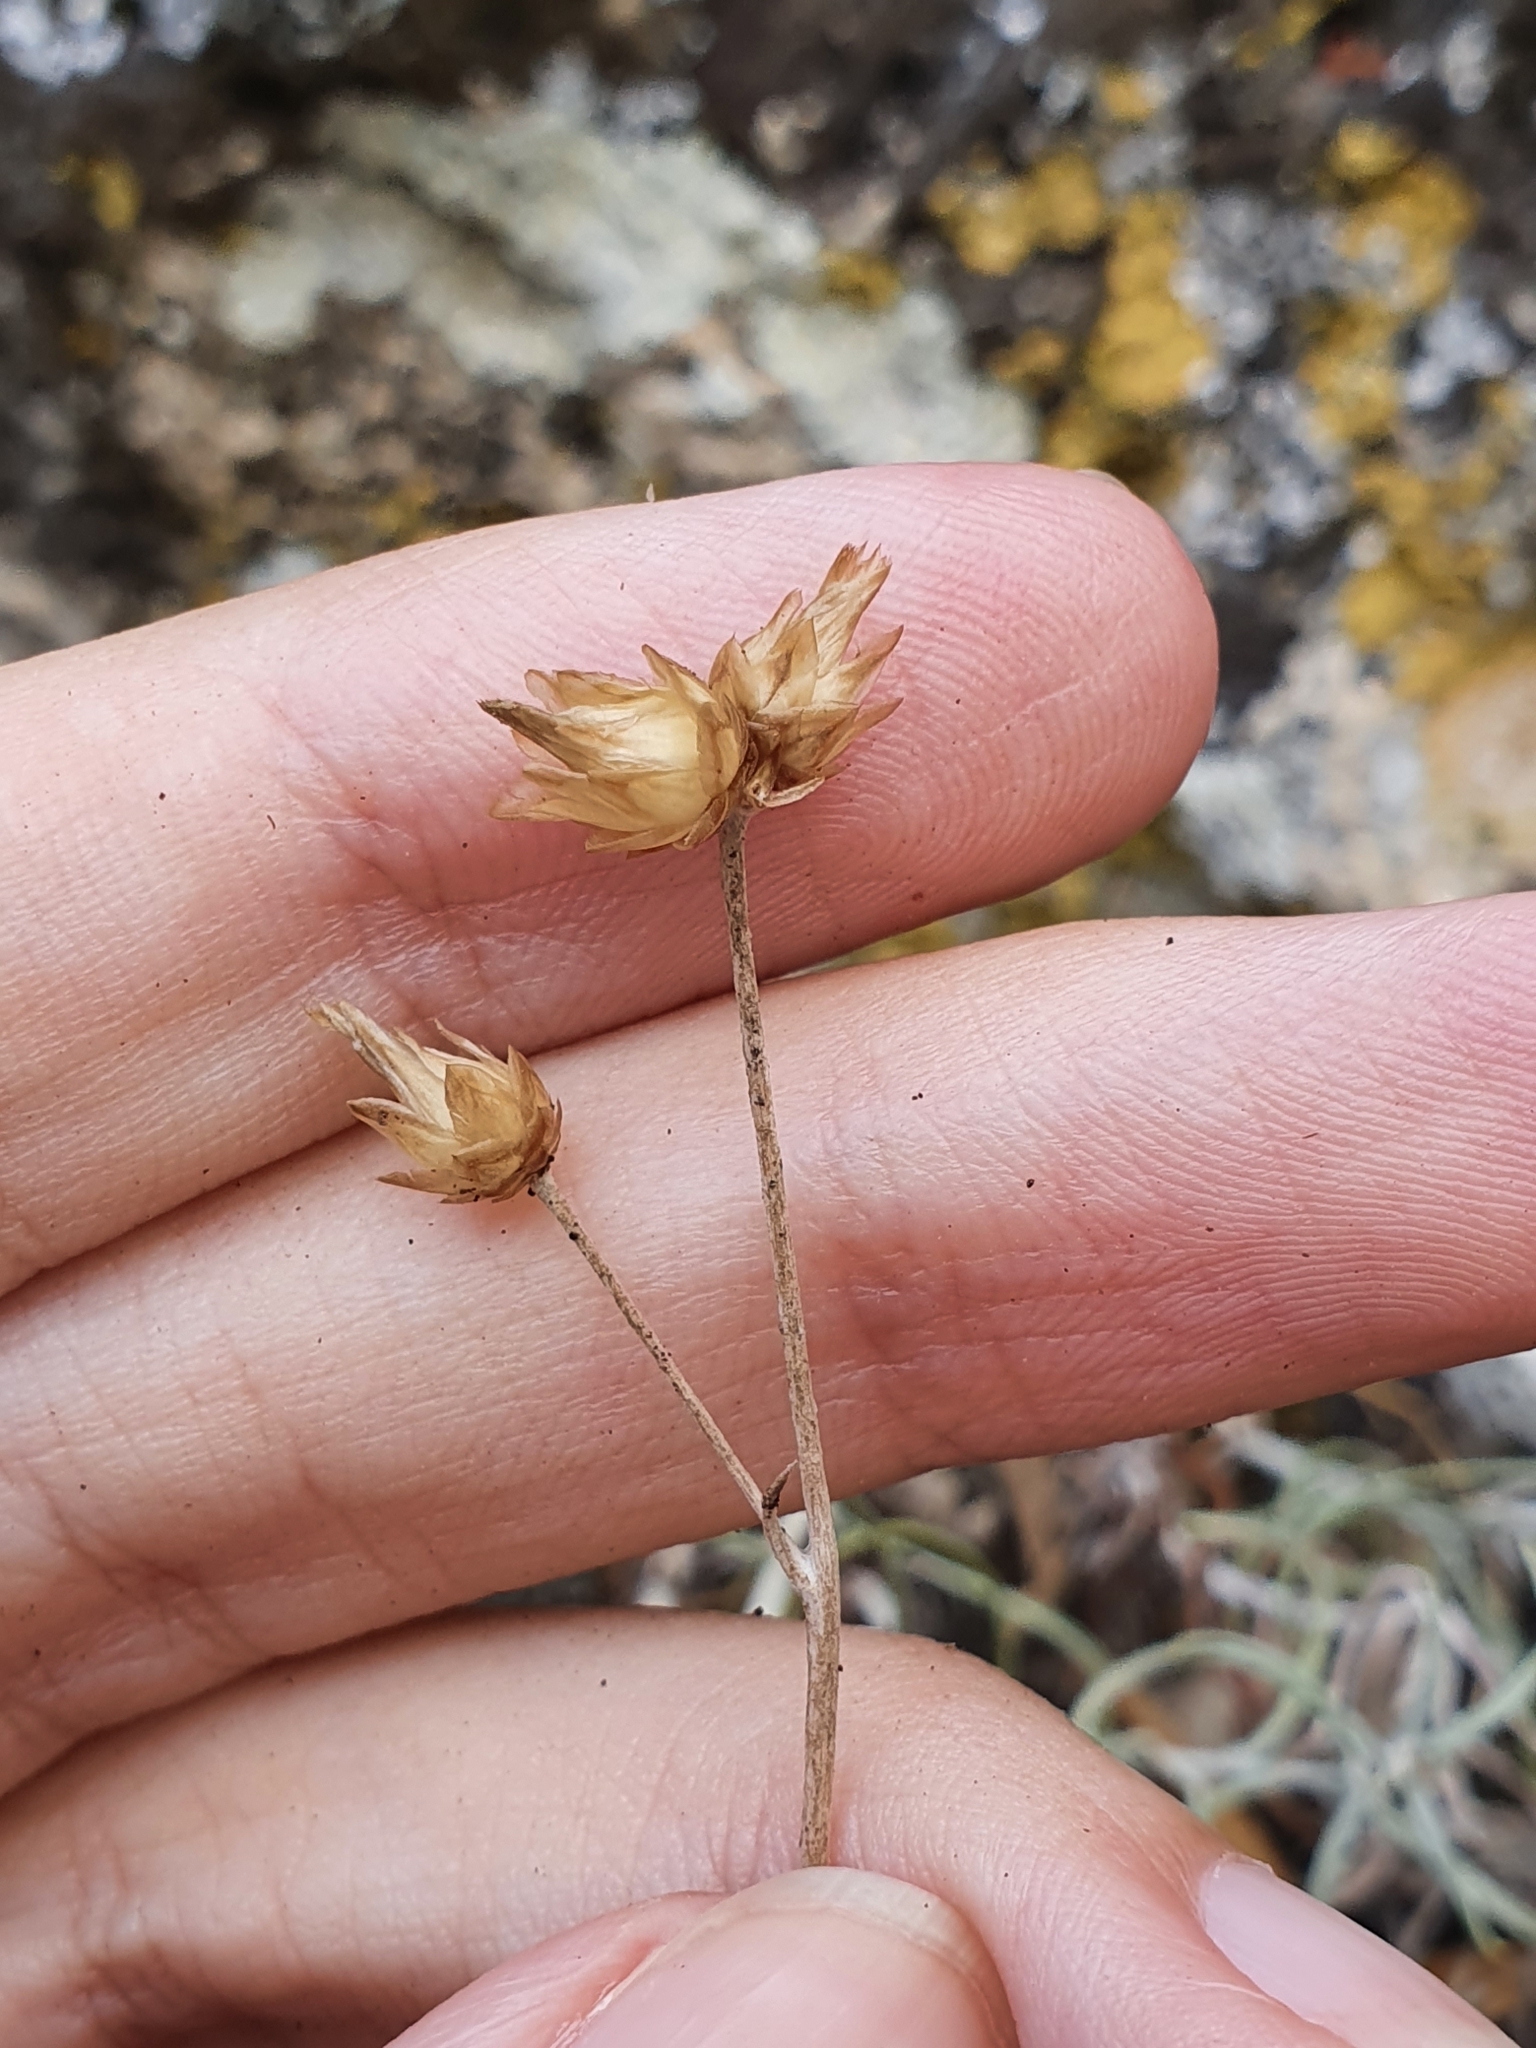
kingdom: Plantae
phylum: Tracheophyta
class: Magnoliopsida
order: Asterales
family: Asteraceae
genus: Phagnalon
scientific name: Phagnalon sordidum
